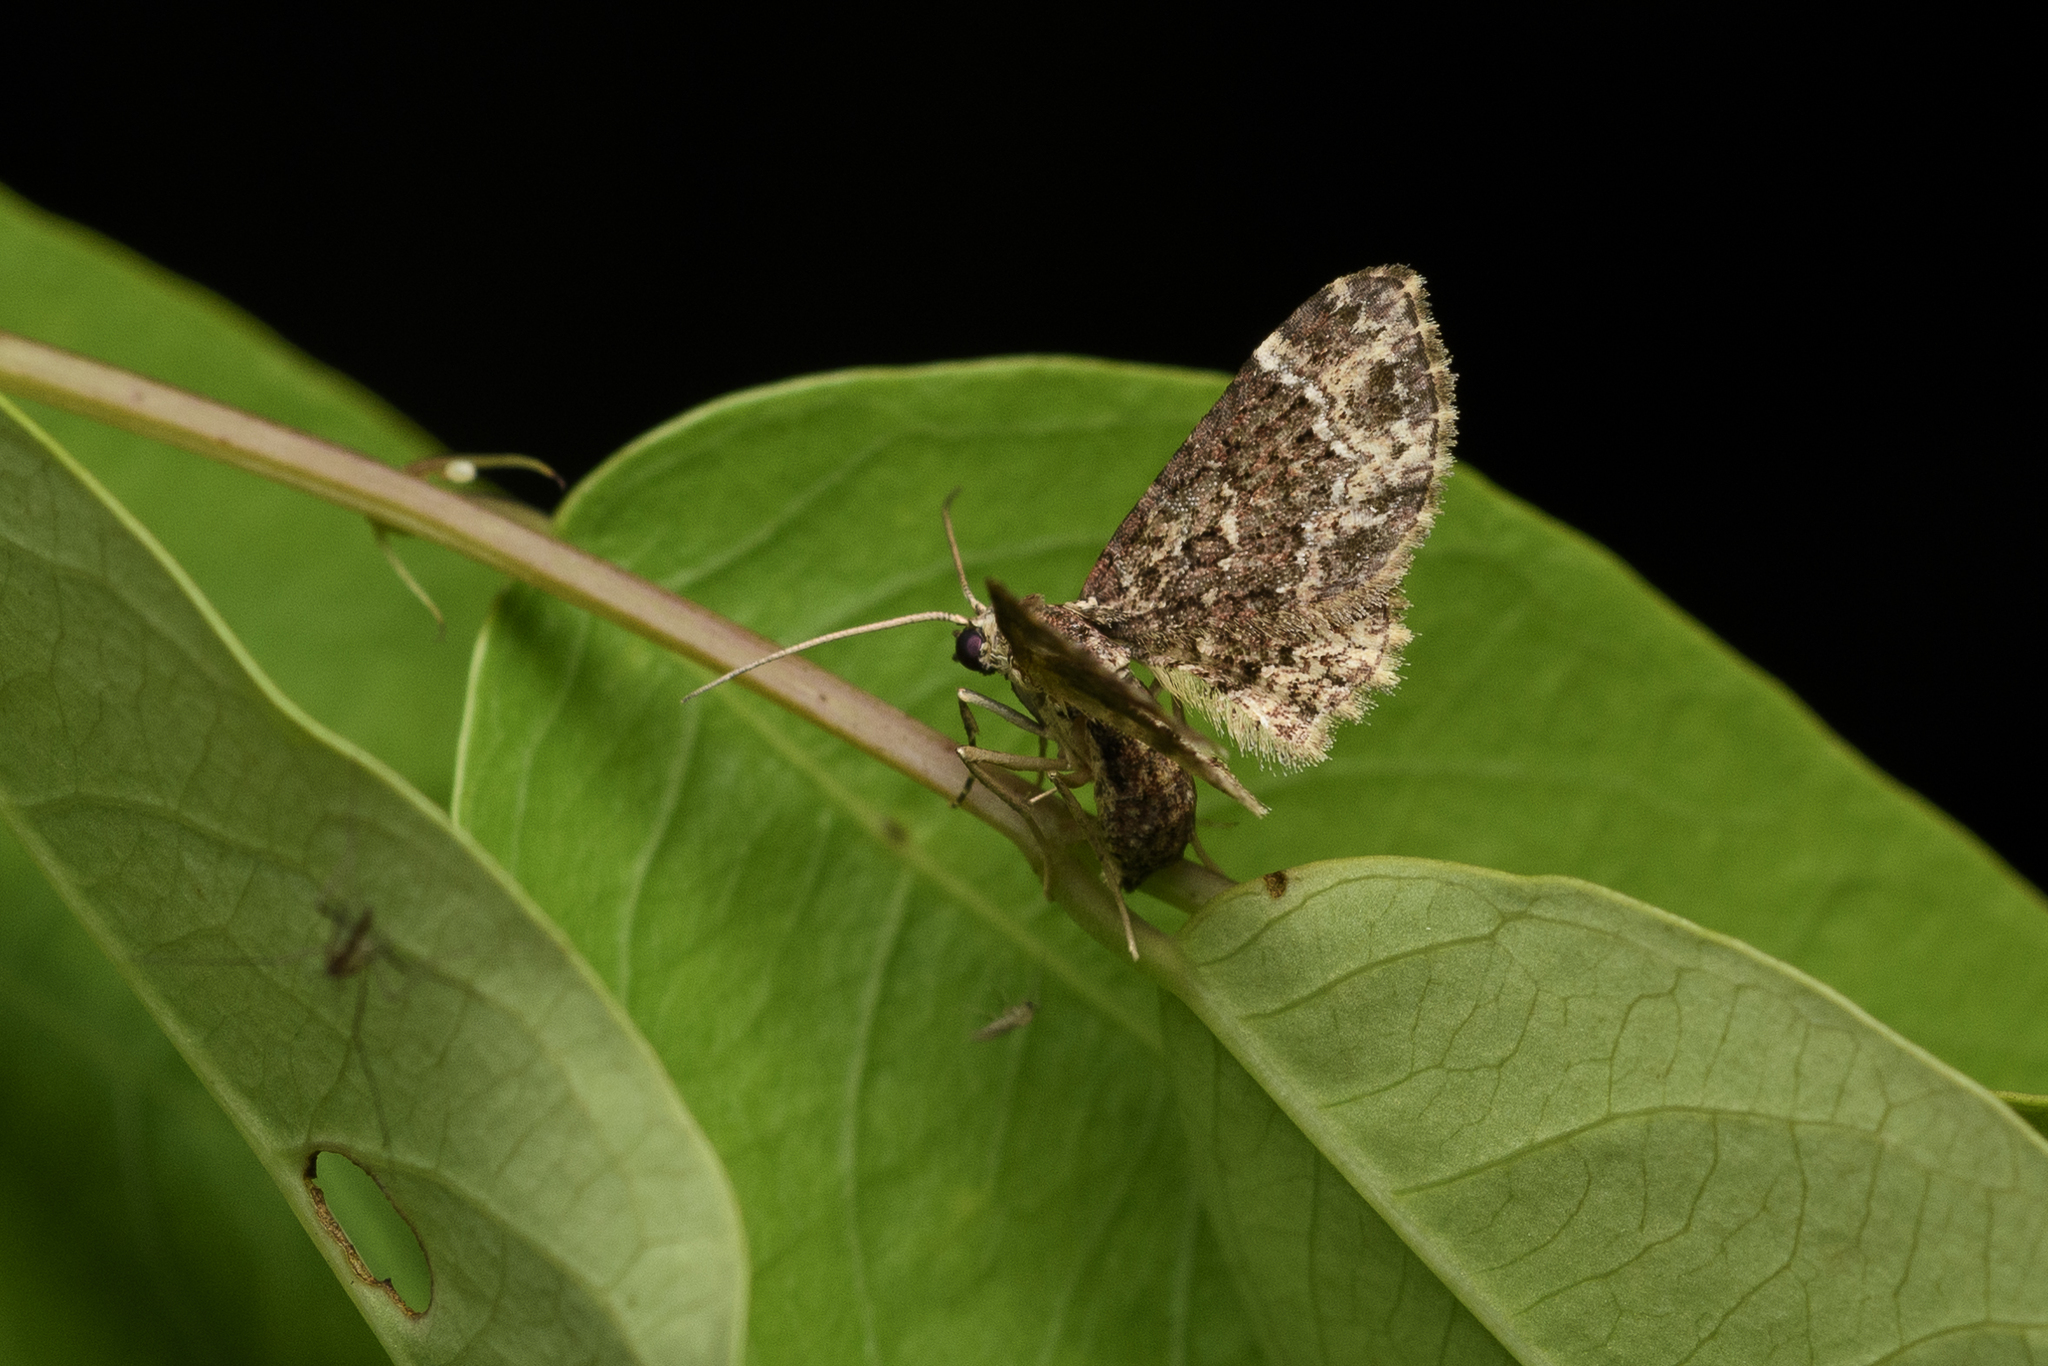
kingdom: Animalia
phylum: Arthropoda
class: Insecta
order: Lepidoptera
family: Geometridae
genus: Bosara
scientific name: Bosara subrobusta
